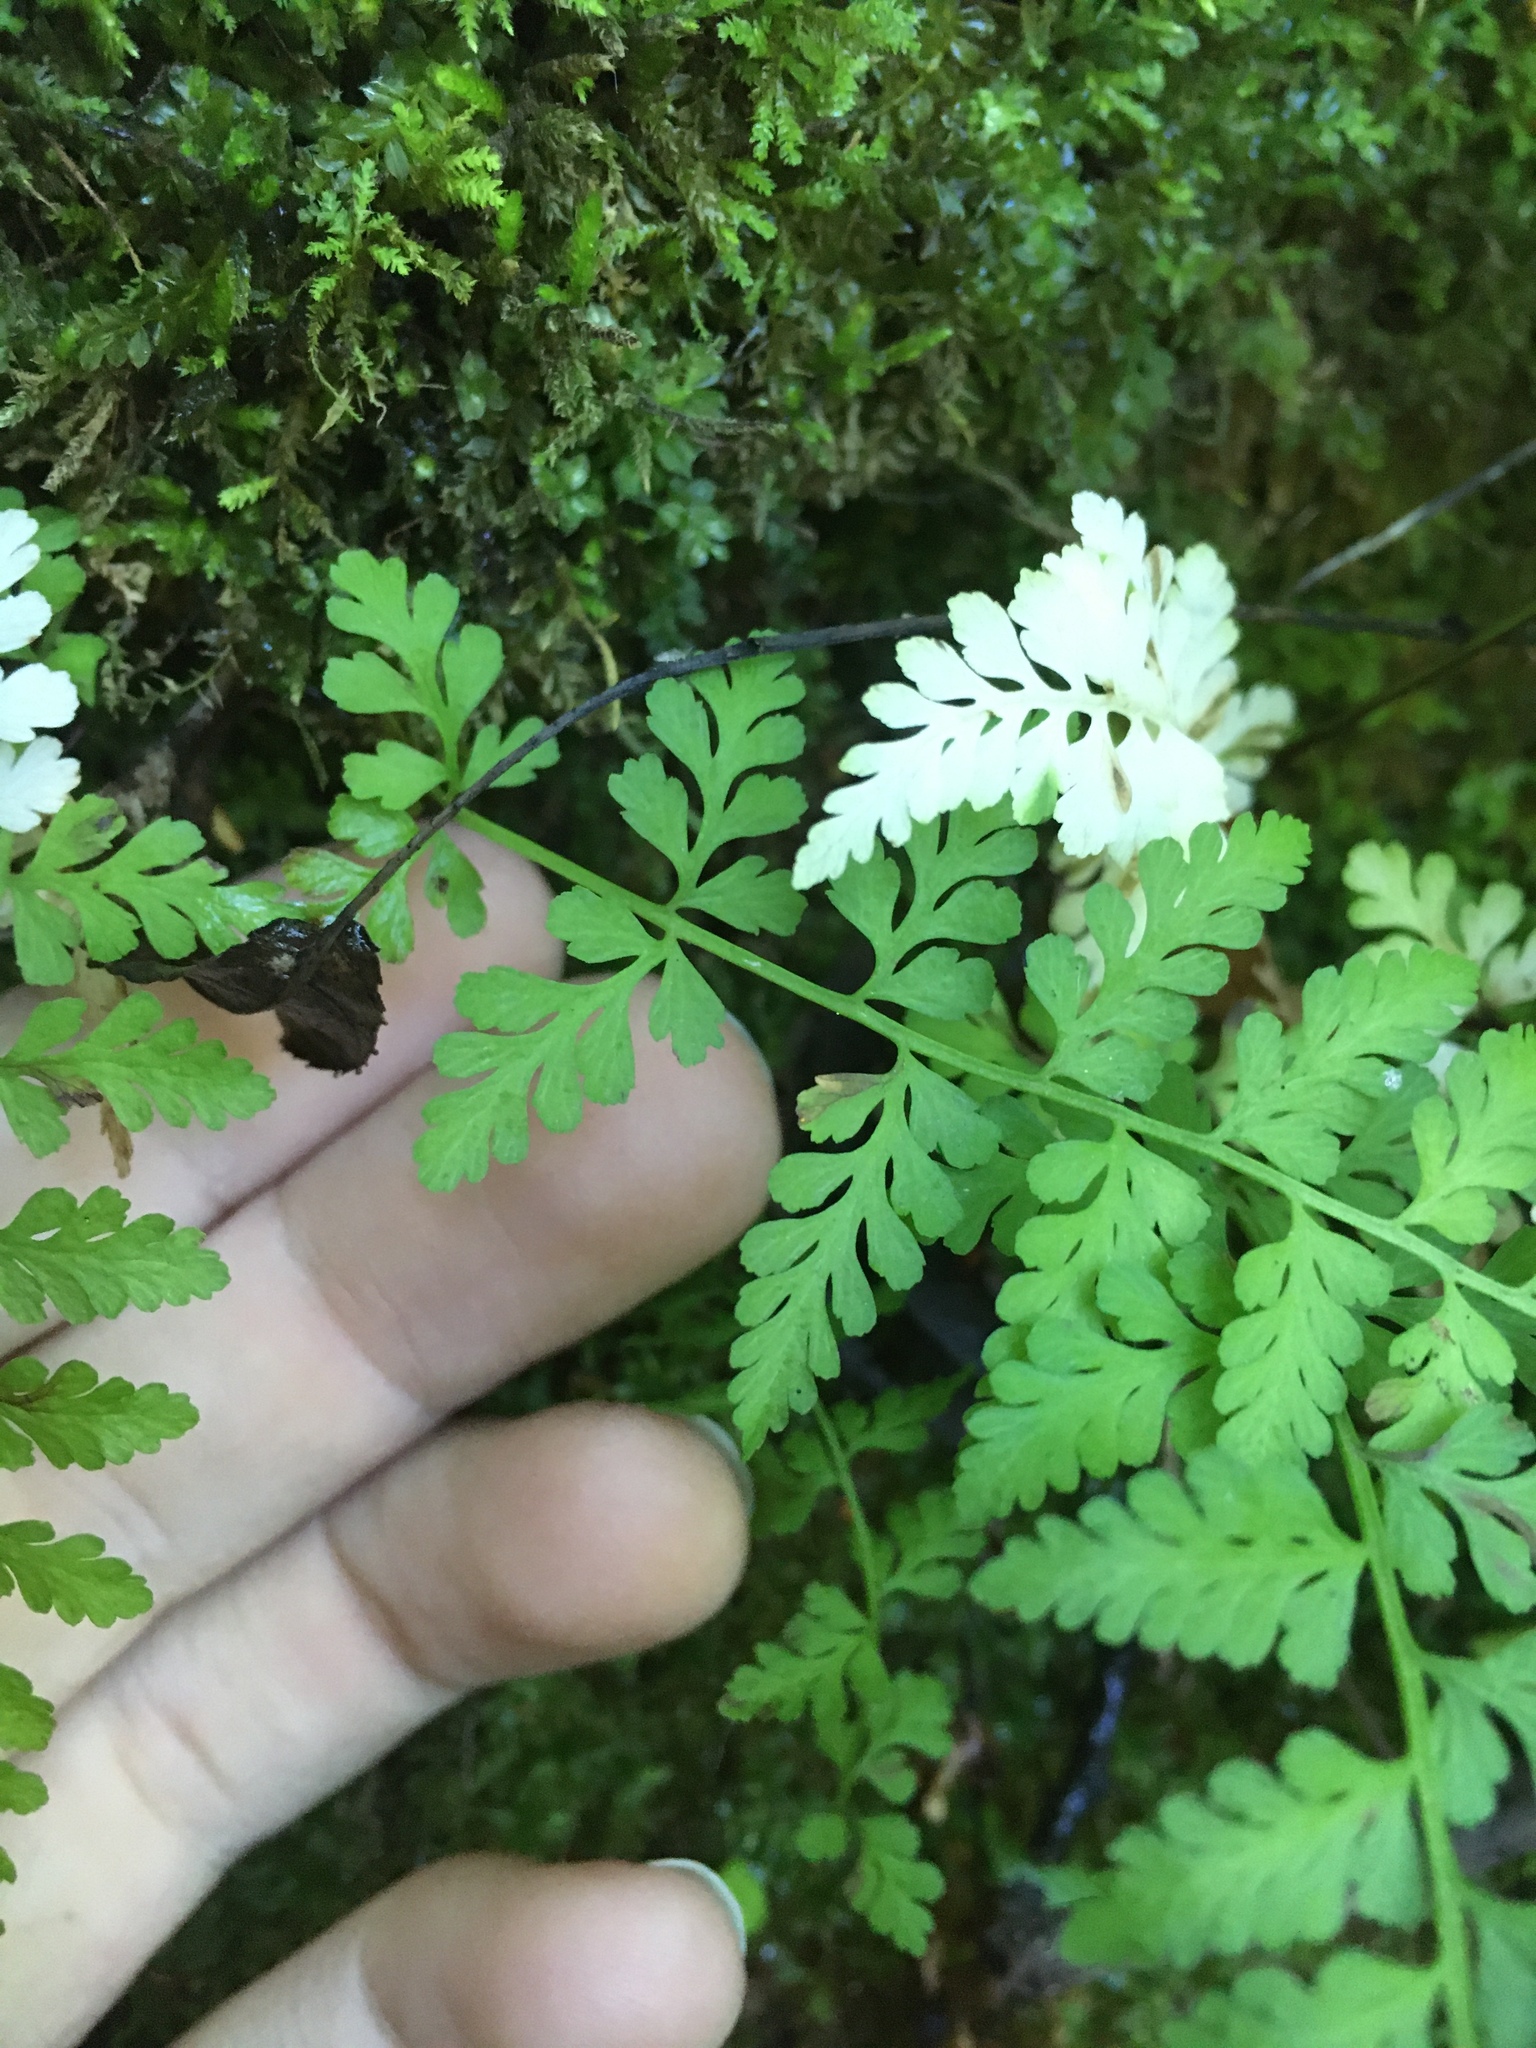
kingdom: Plantae
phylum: Tracheophyta
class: Polypodiopsida
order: Polypodiales
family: Cystopteridaceae
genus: Cystopteris
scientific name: Cystopteris fragilis
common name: Brittle bladder fern
